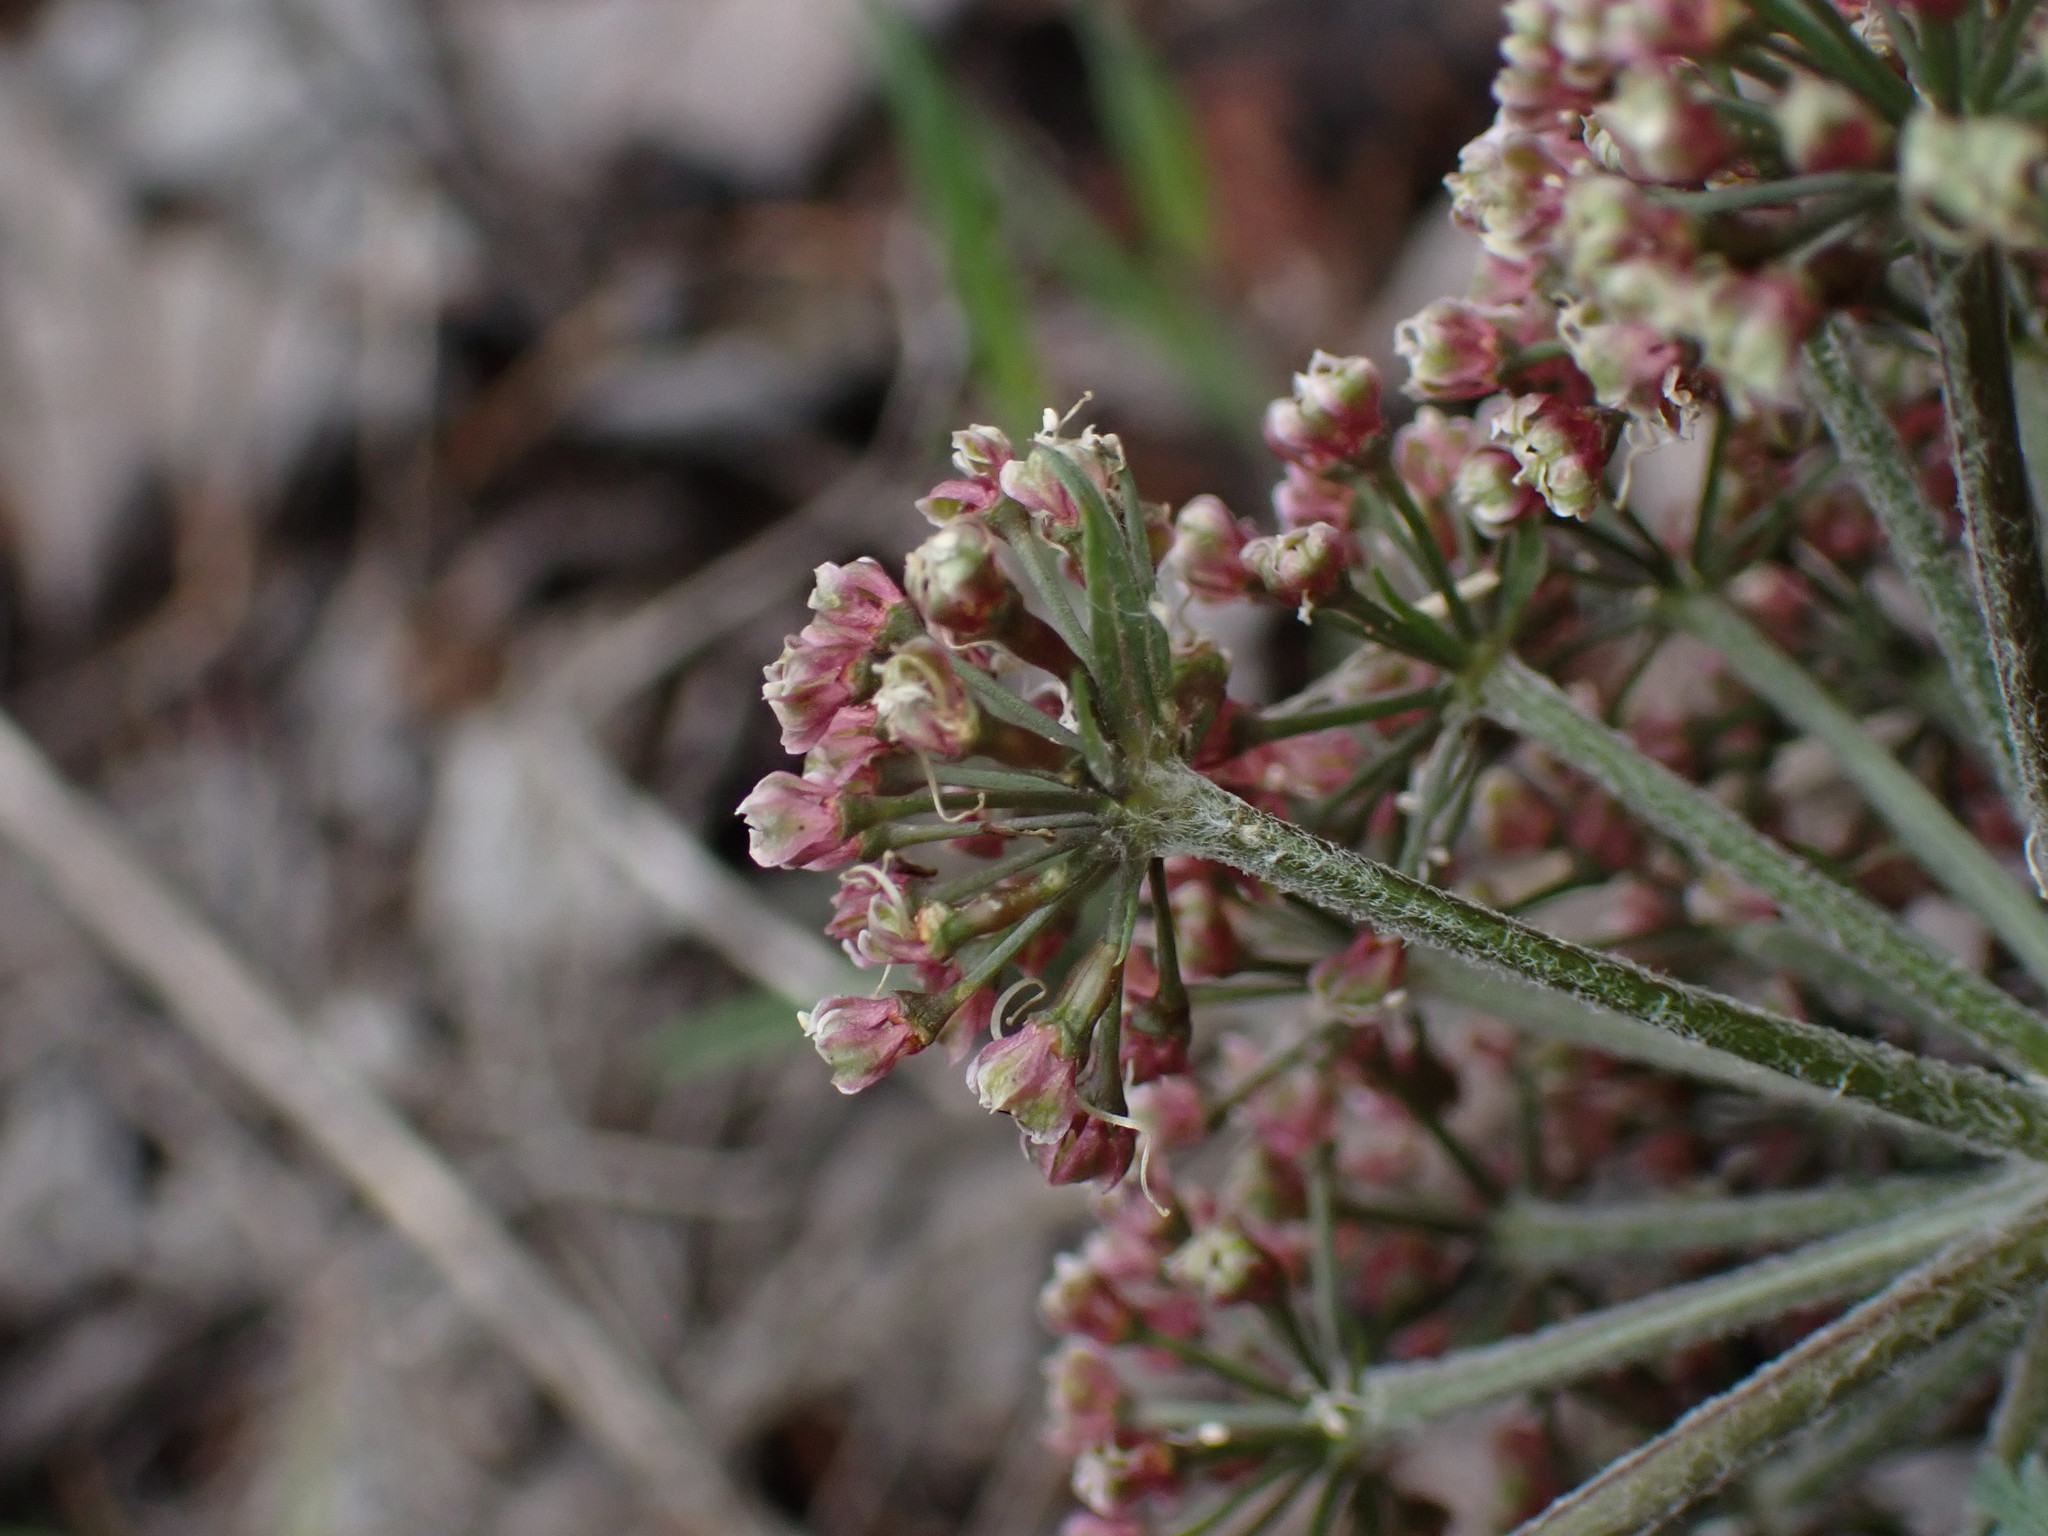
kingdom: Plantae
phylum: Tracheophyta
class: Magnoliopsida
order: Apiales
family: Apiaceae
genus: Lomatium
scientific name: Lomatium macrocarpum
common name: Big-seed biscuitroot
